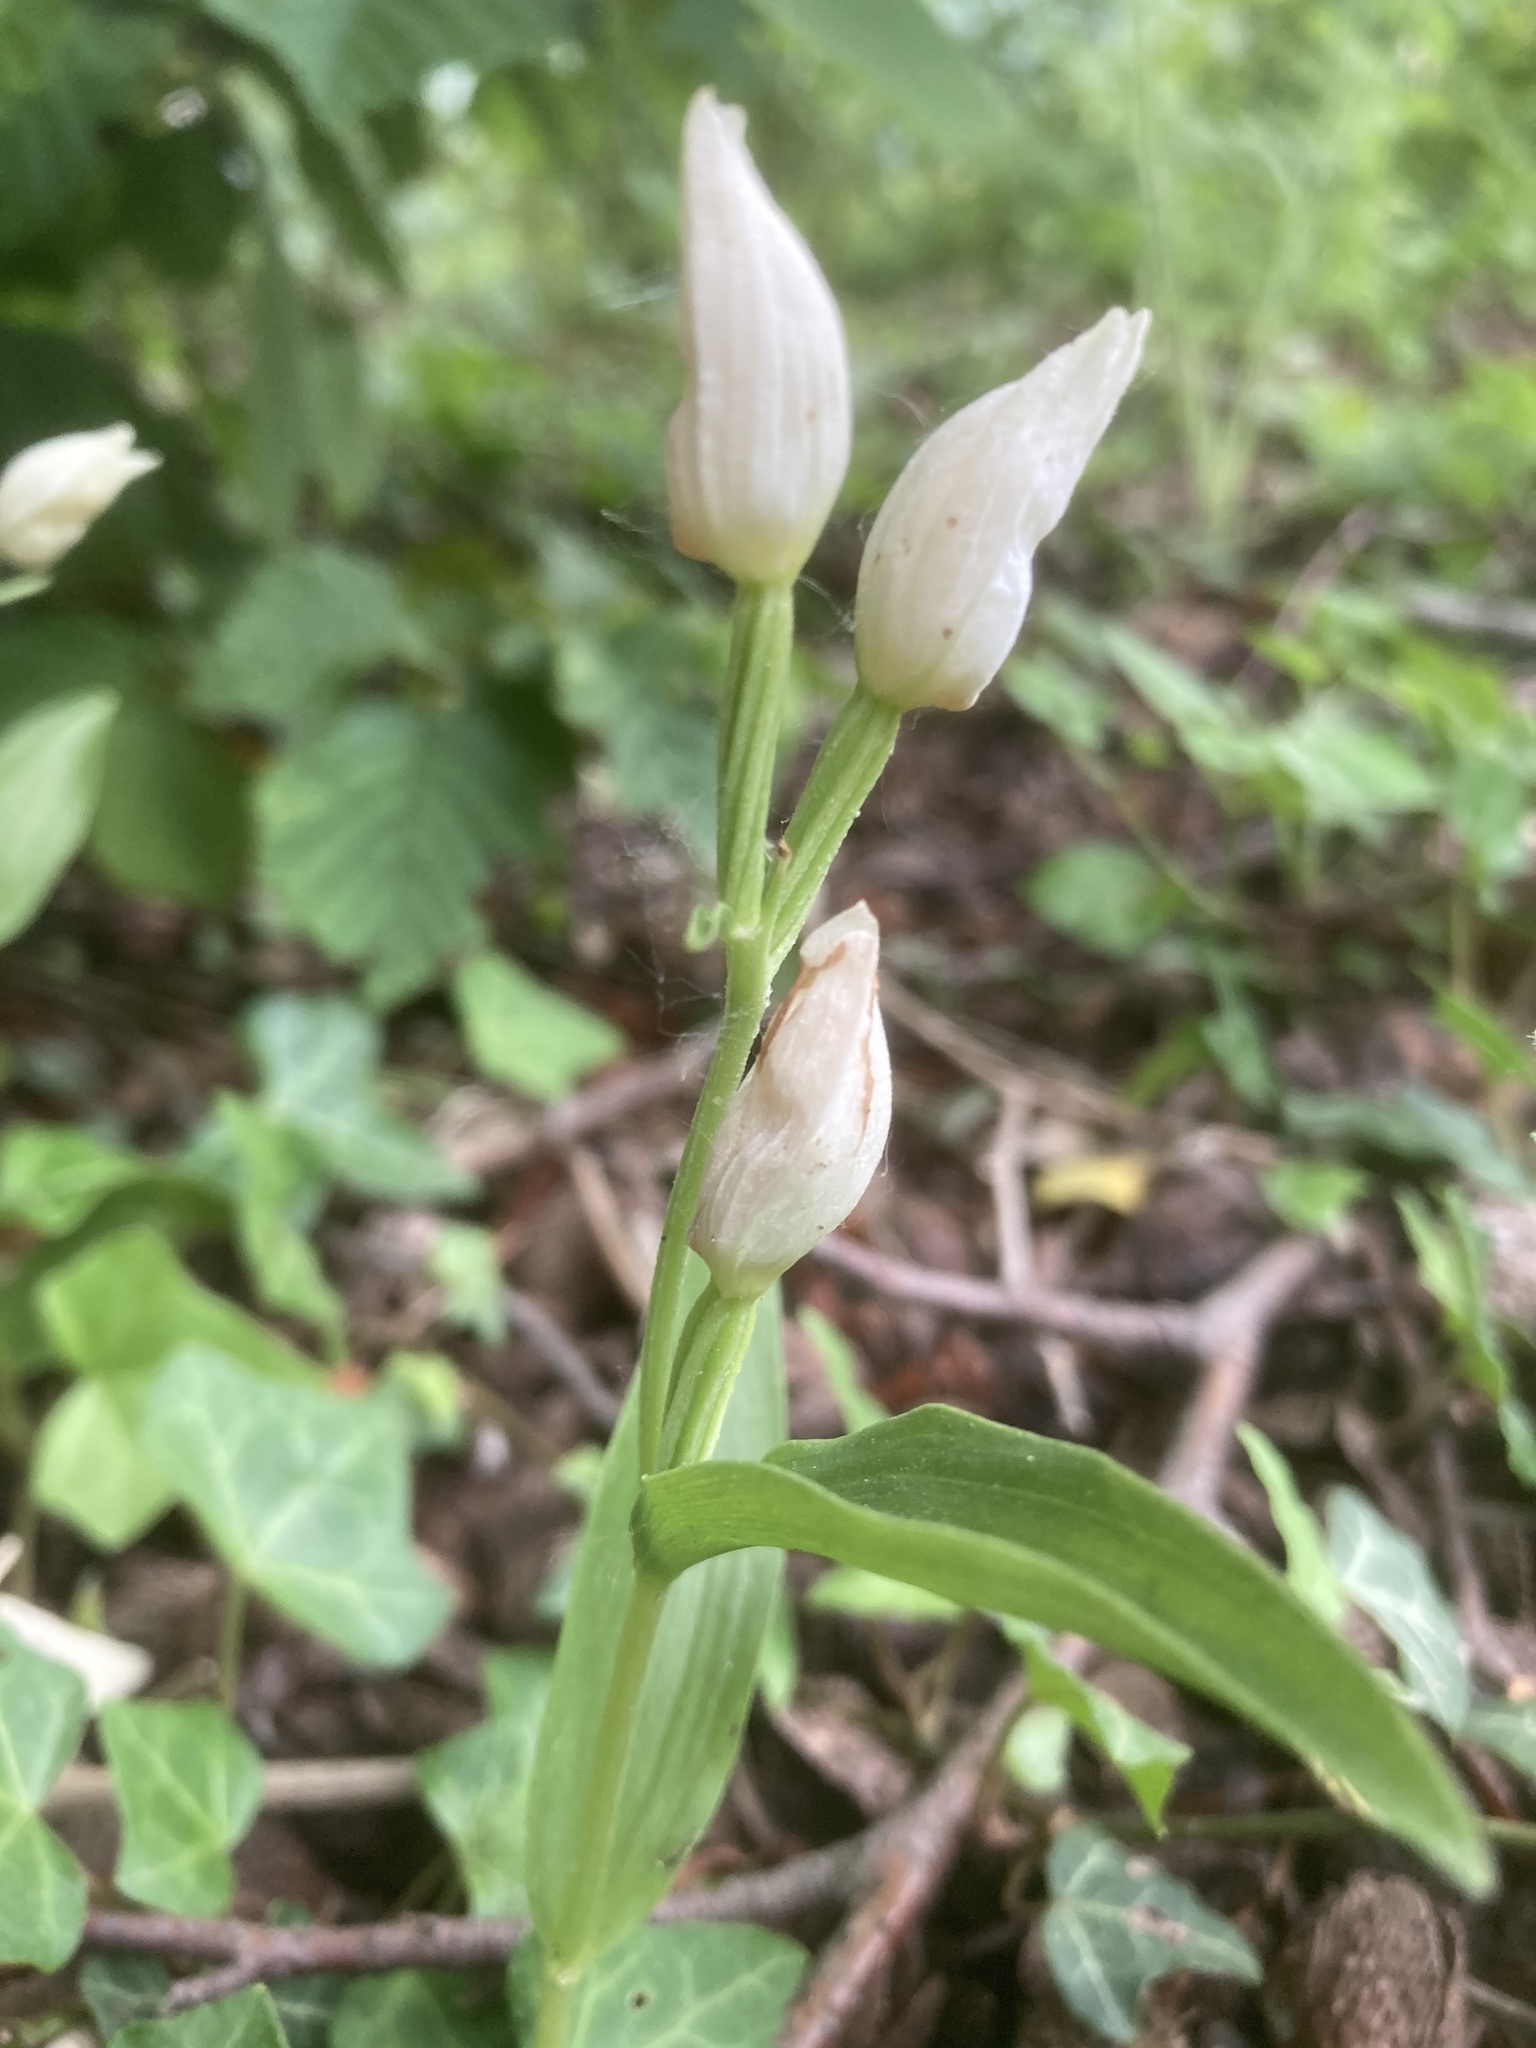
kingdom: Plantae
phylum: Tracheophyta
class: Liliopsida
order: Asparagales
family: Orchidaceae
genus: Cephalanthera
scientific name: Cephalanthera damasonium
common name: White helleborine
